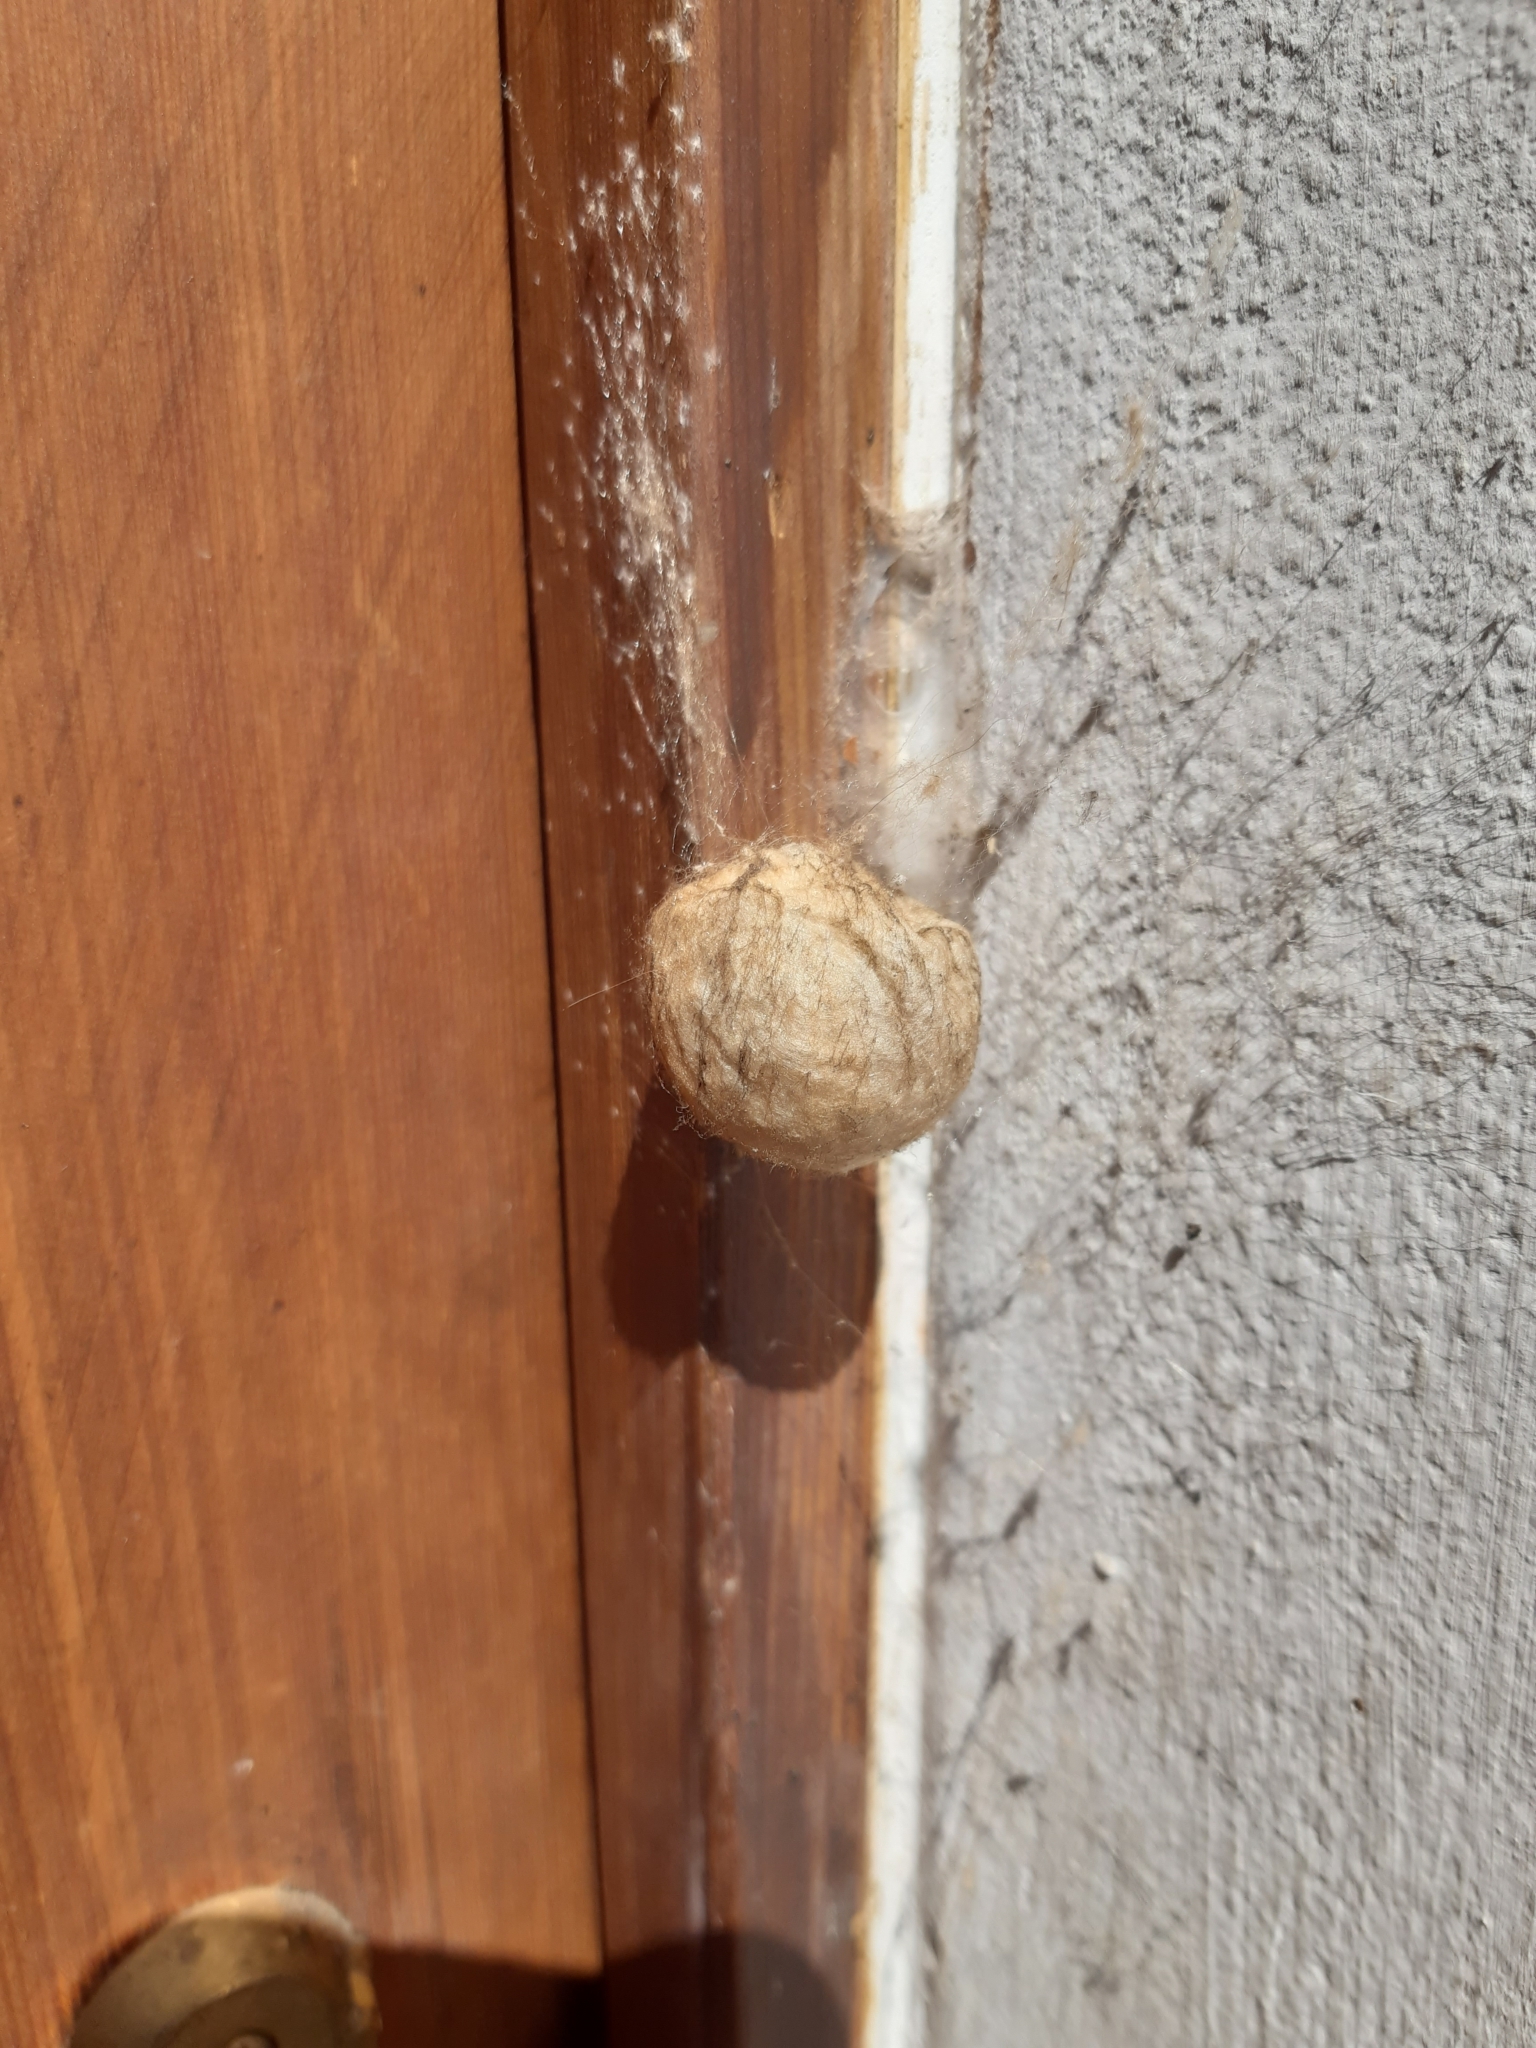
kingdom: Animalia
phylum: Arthropoda
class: Arachnida
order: Araneae
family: Araneidae
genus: Argiope
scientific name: Argiope bruennichi
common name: Wasp spider
